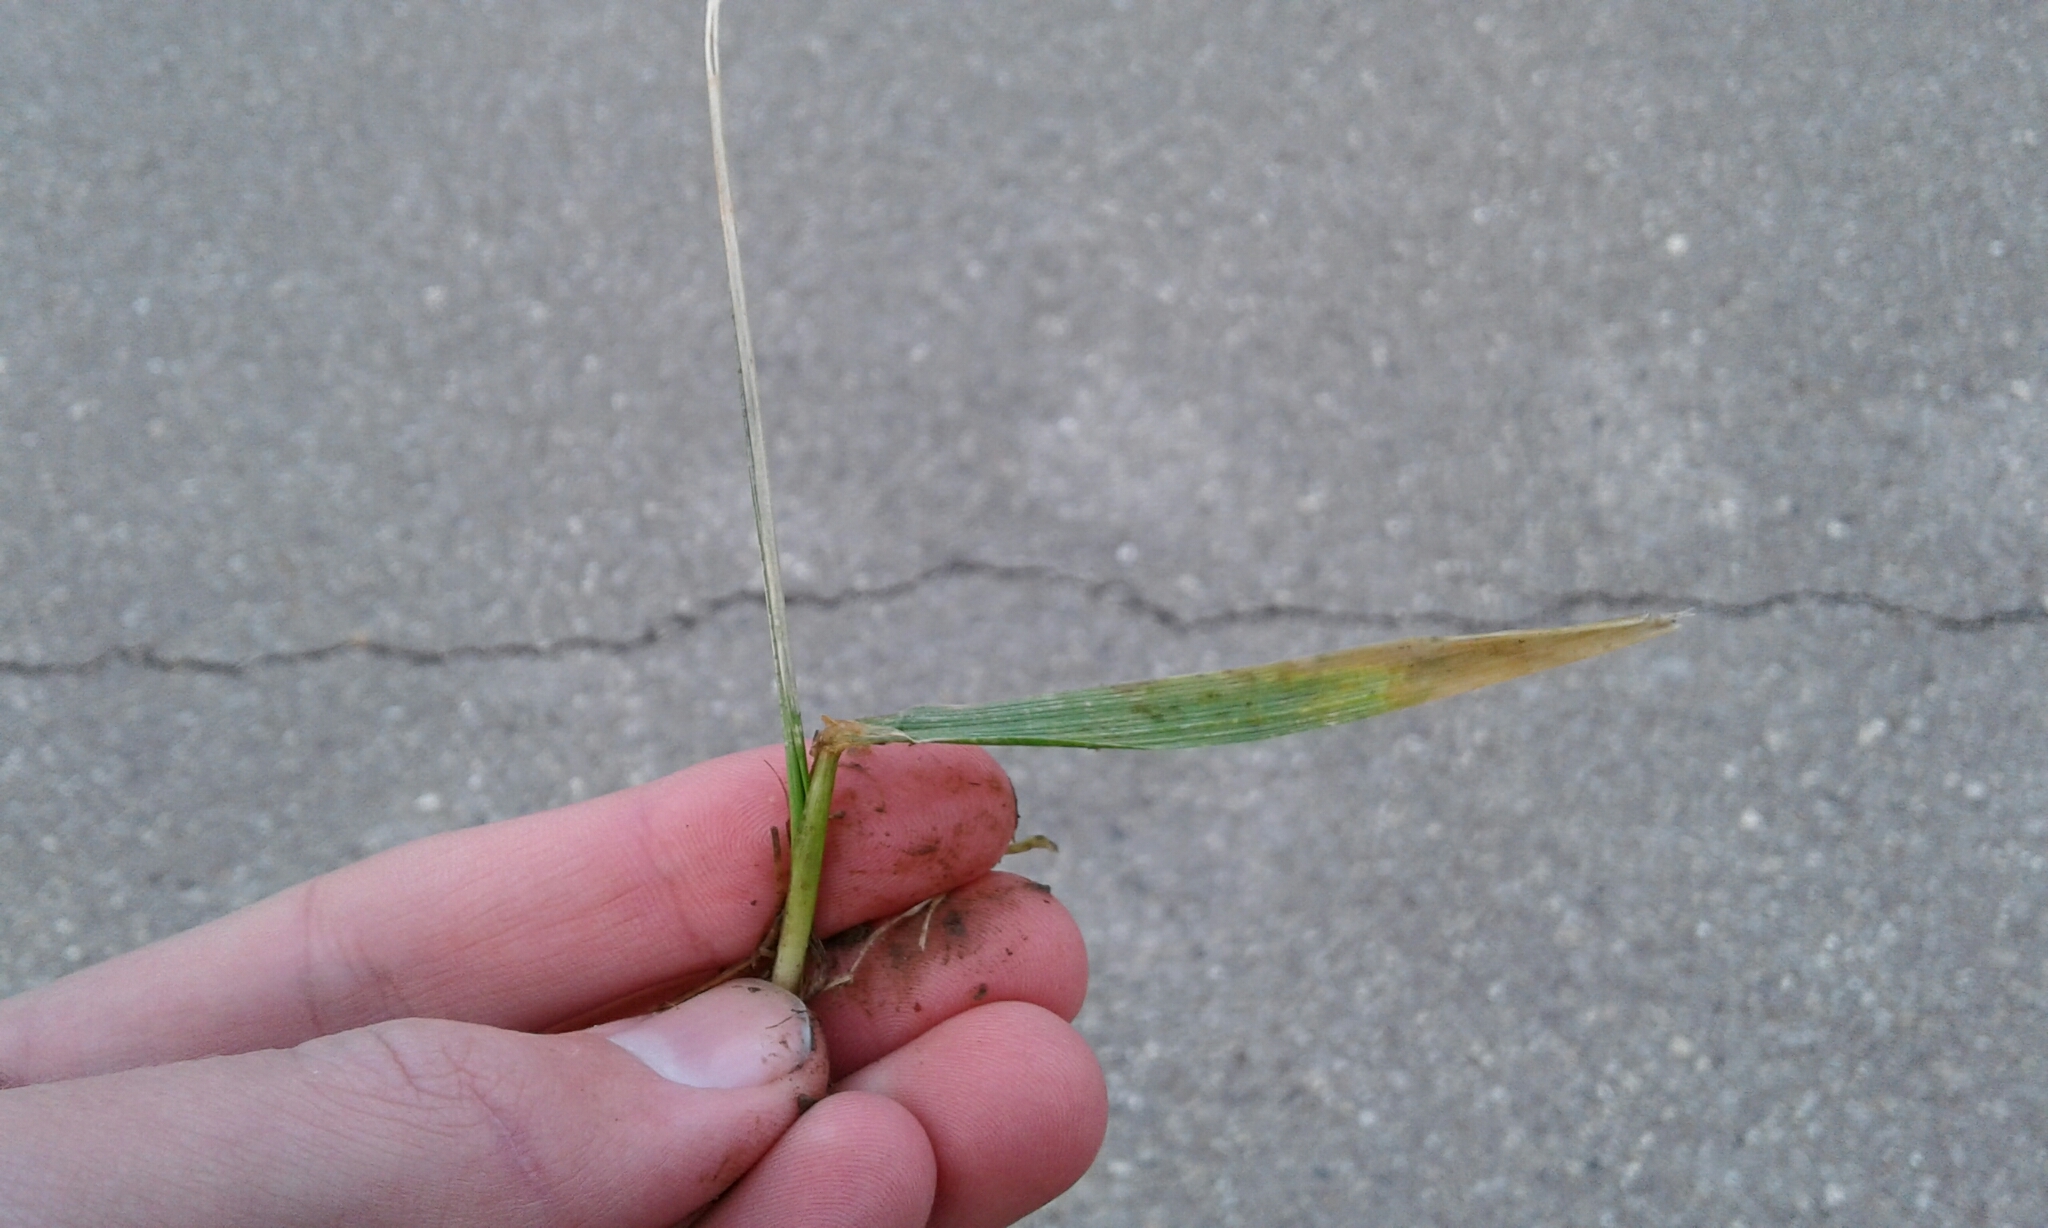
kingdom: Plantae
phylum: Tracheophyta
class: Liliopsida
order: Poales
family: Poaceae
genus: Digitaria
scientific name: Digitaria sanguinalis
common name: Hairy crabgrass
